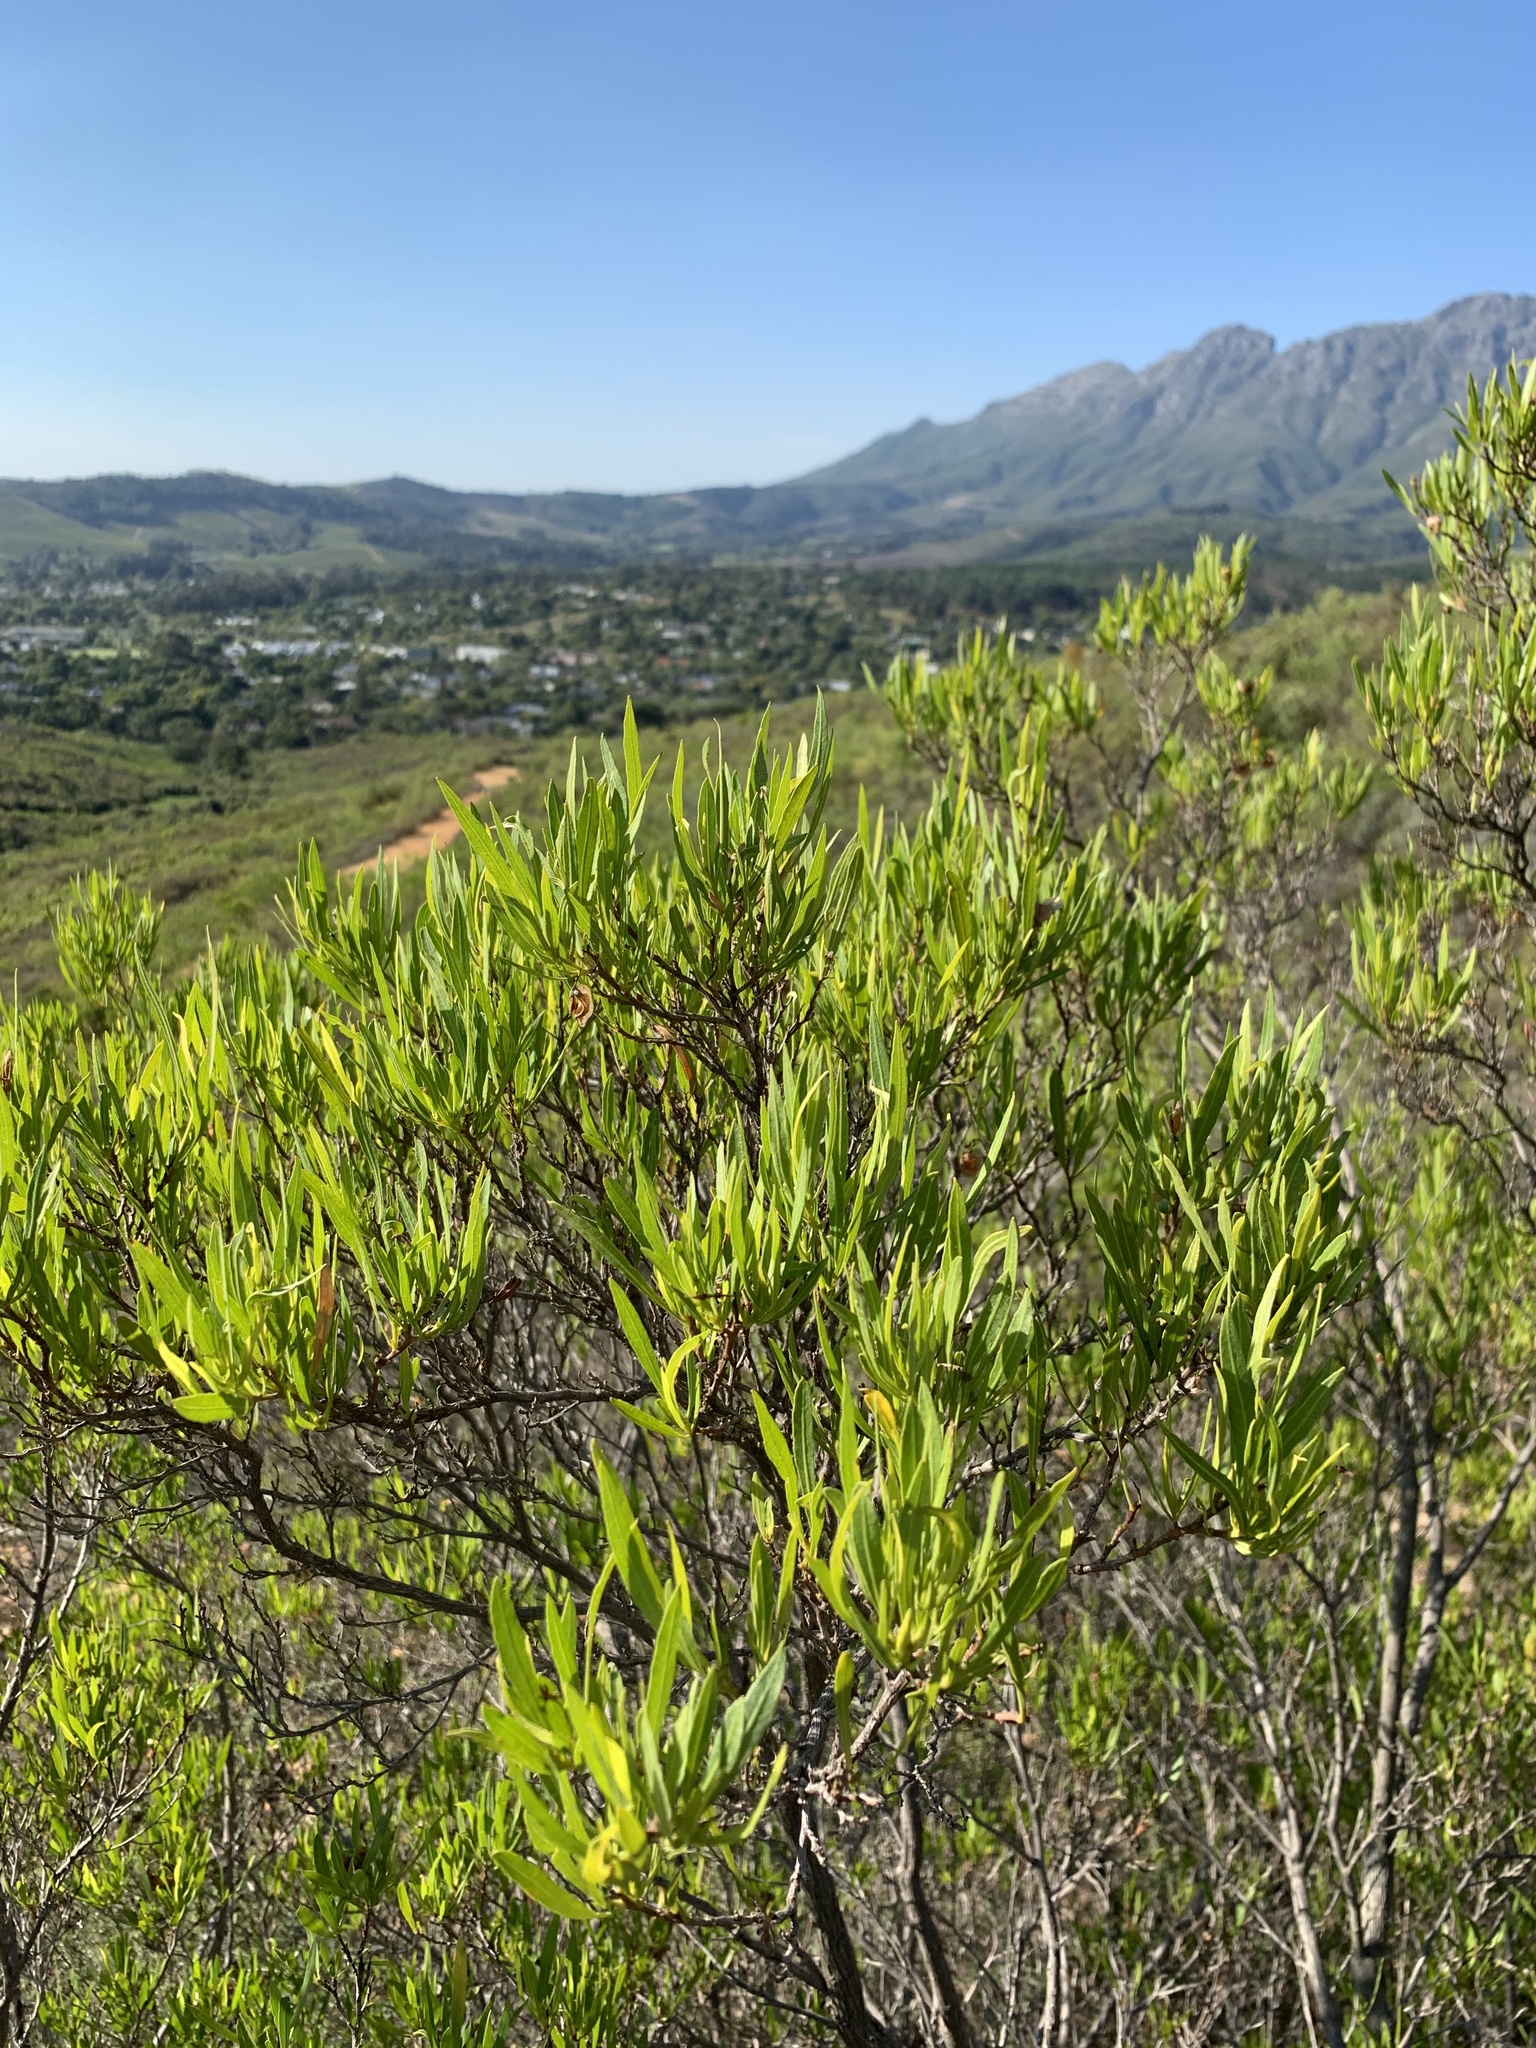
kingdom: Plantae
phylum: Tracheophyta
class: Magnoliopsida
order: Sapindales
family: Sapindaceae
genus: Dodonaea
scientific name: Dodonaea viscosa
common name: Hopbush
